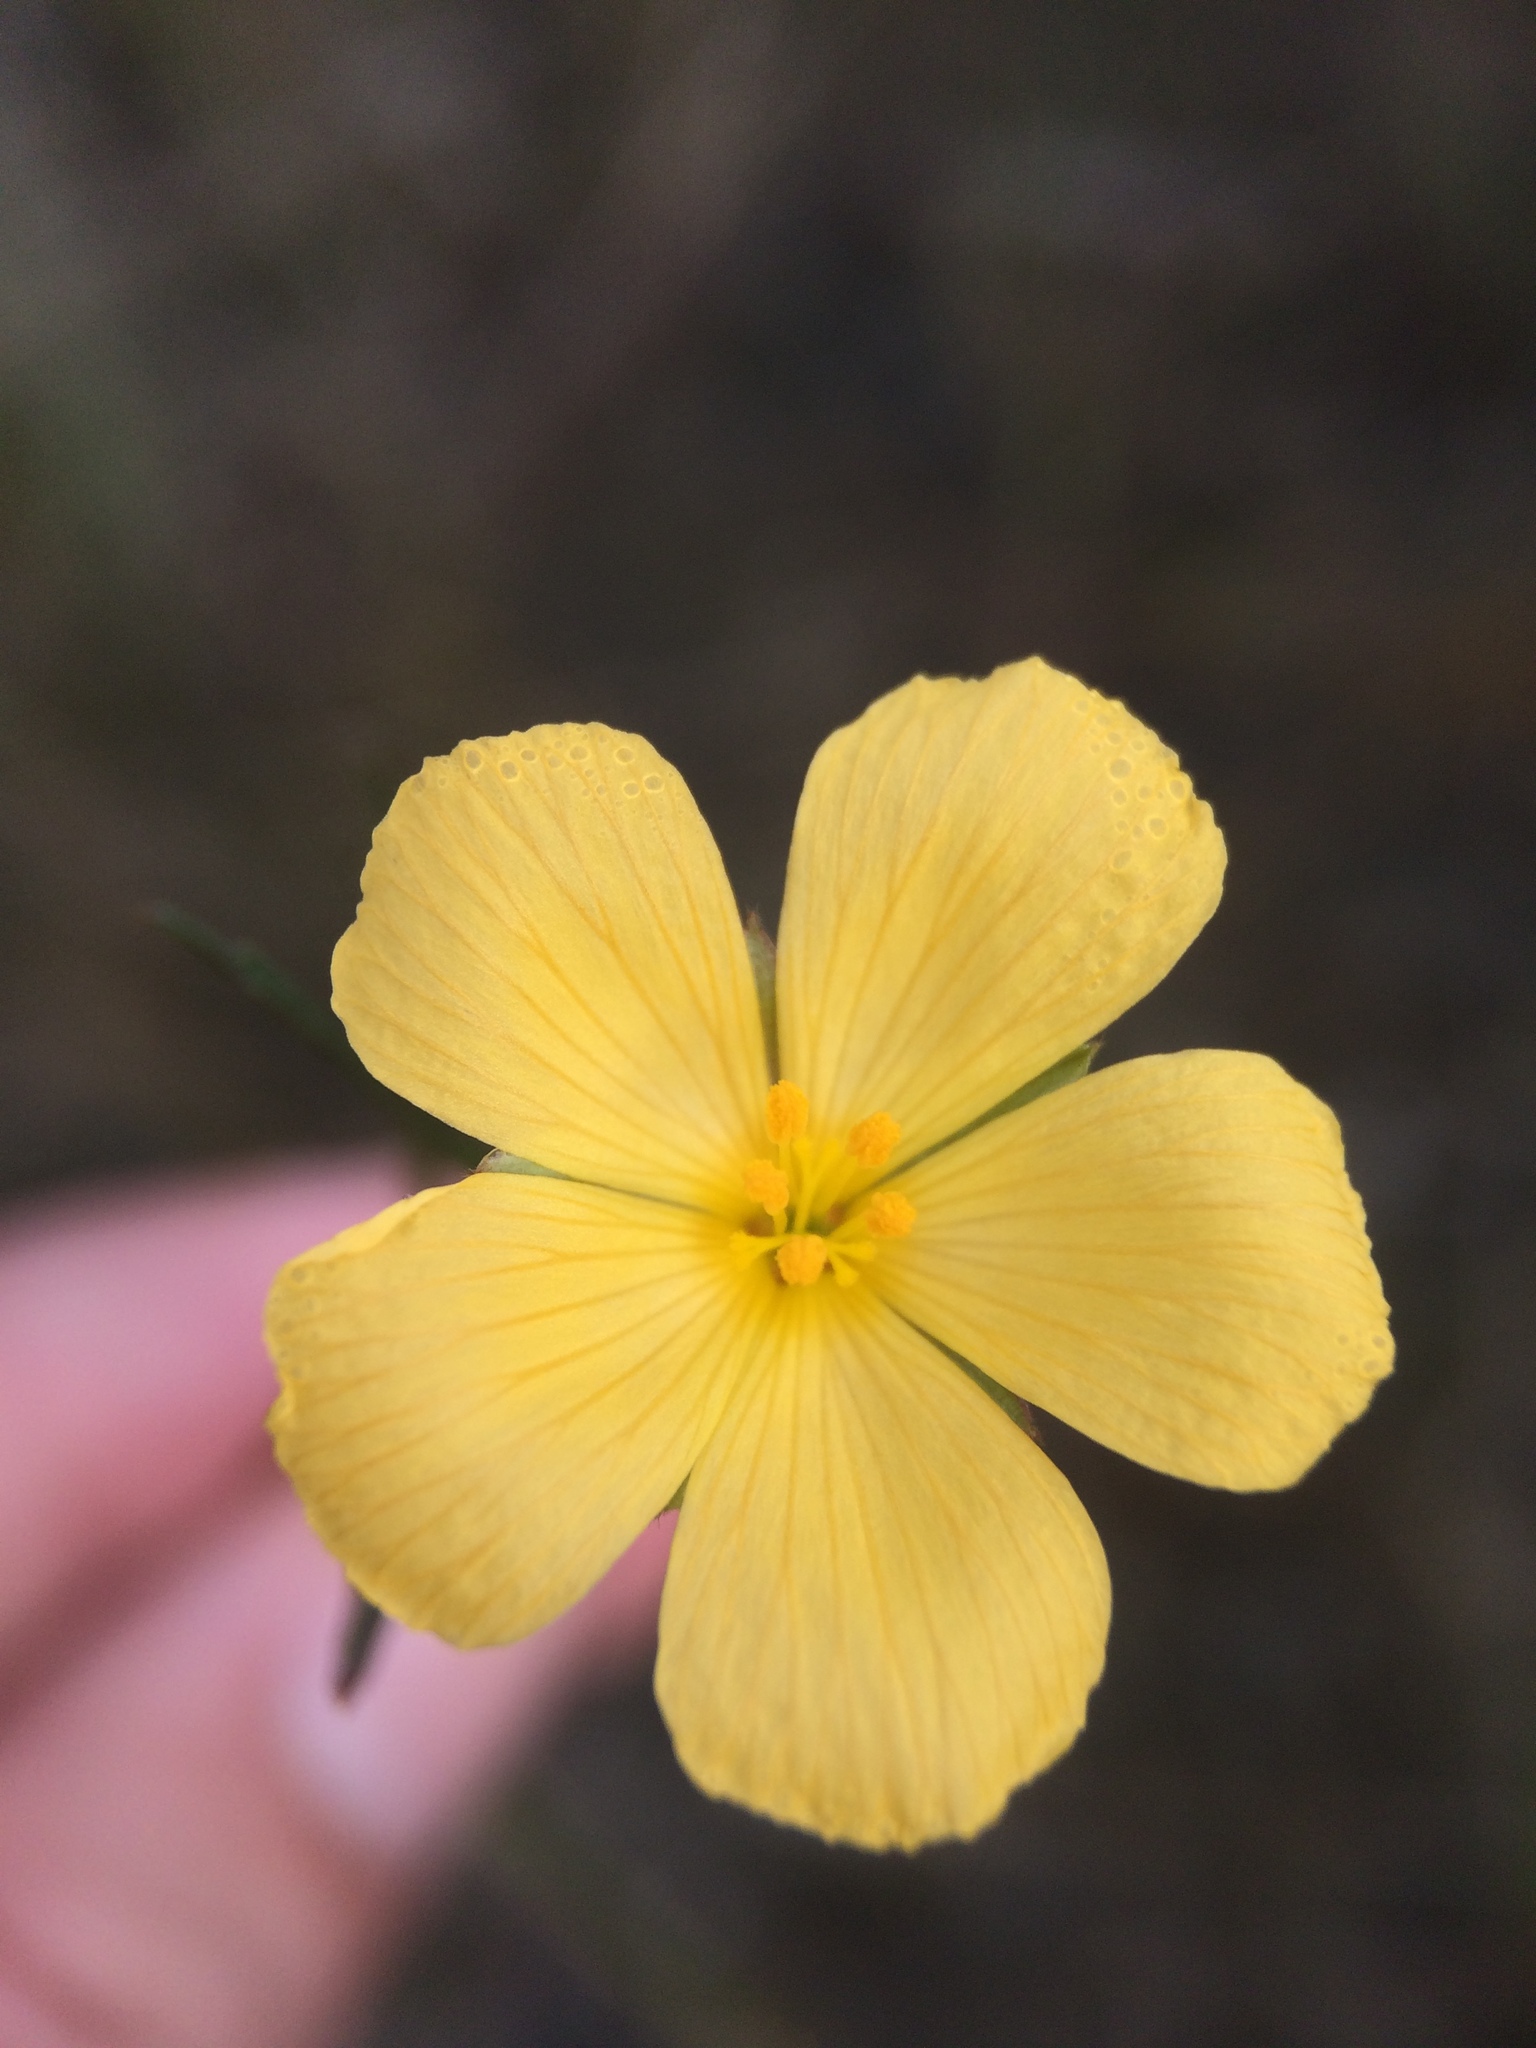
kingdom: Plantae
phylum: Tracheophyta
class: Magnoliopsida
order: Malpighiales
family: Turneraceae
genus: Piriqueta
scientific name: Piriqueta cistoides
